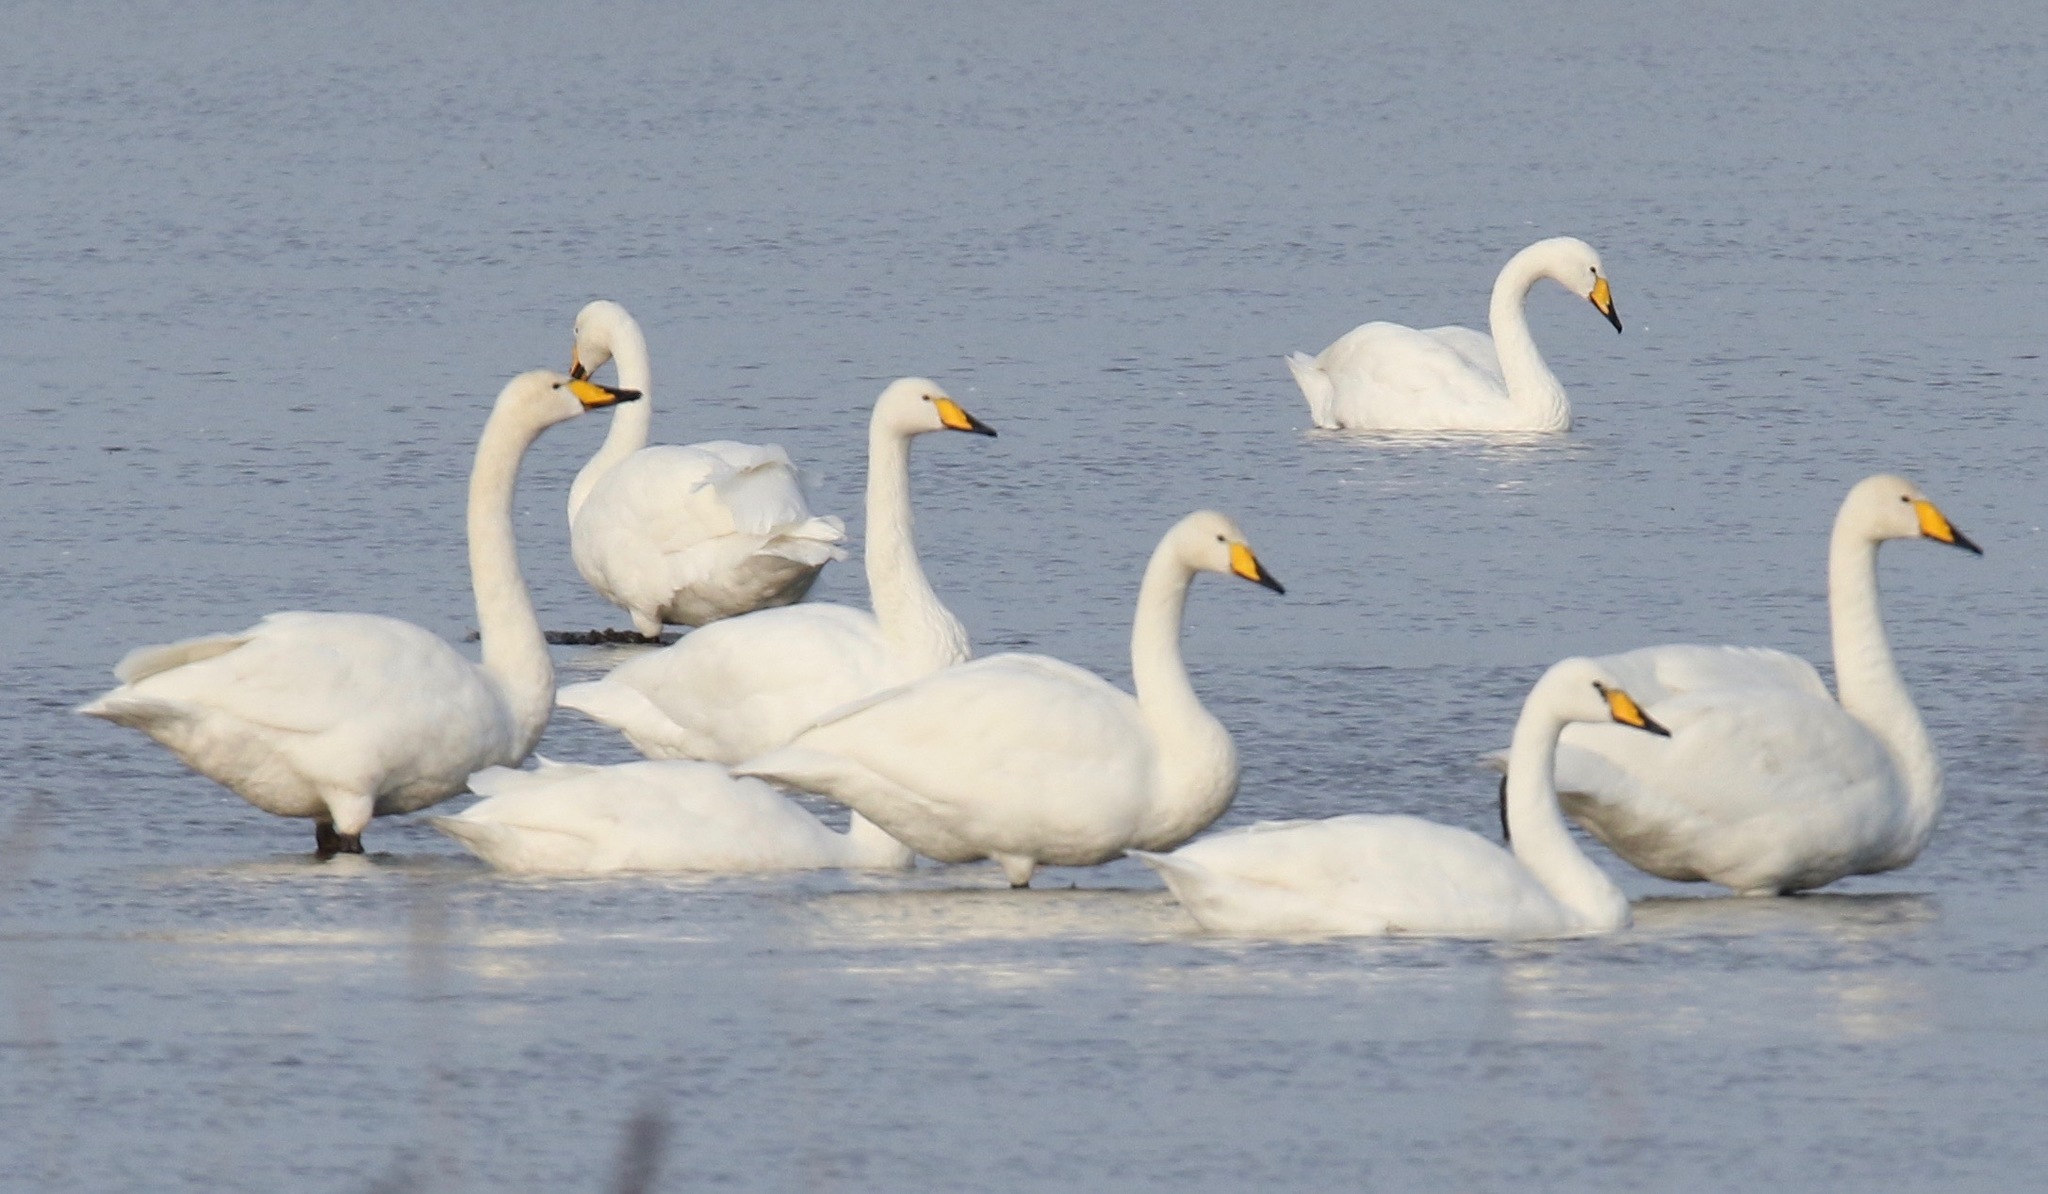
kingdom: Animalia
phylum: Chordata
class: Aves
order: Anseriformes
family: Anatidae
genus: Cygnus
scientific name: Cygnus cygnus
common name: Whooper swan
